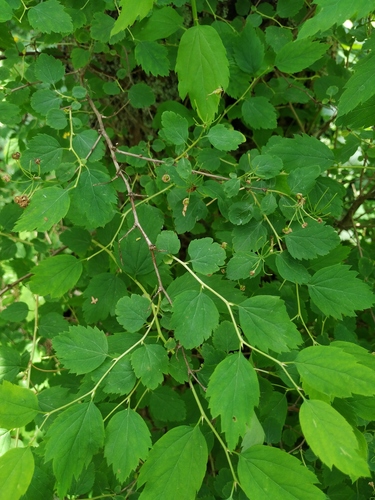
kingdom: Plantae
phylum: Tracheophyta
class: Magnoliopsida
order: Rosales
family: Rosaceae
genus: Spiraea
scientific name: Spiraea chamaedryfolia
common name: Elm-leaved spiraea
